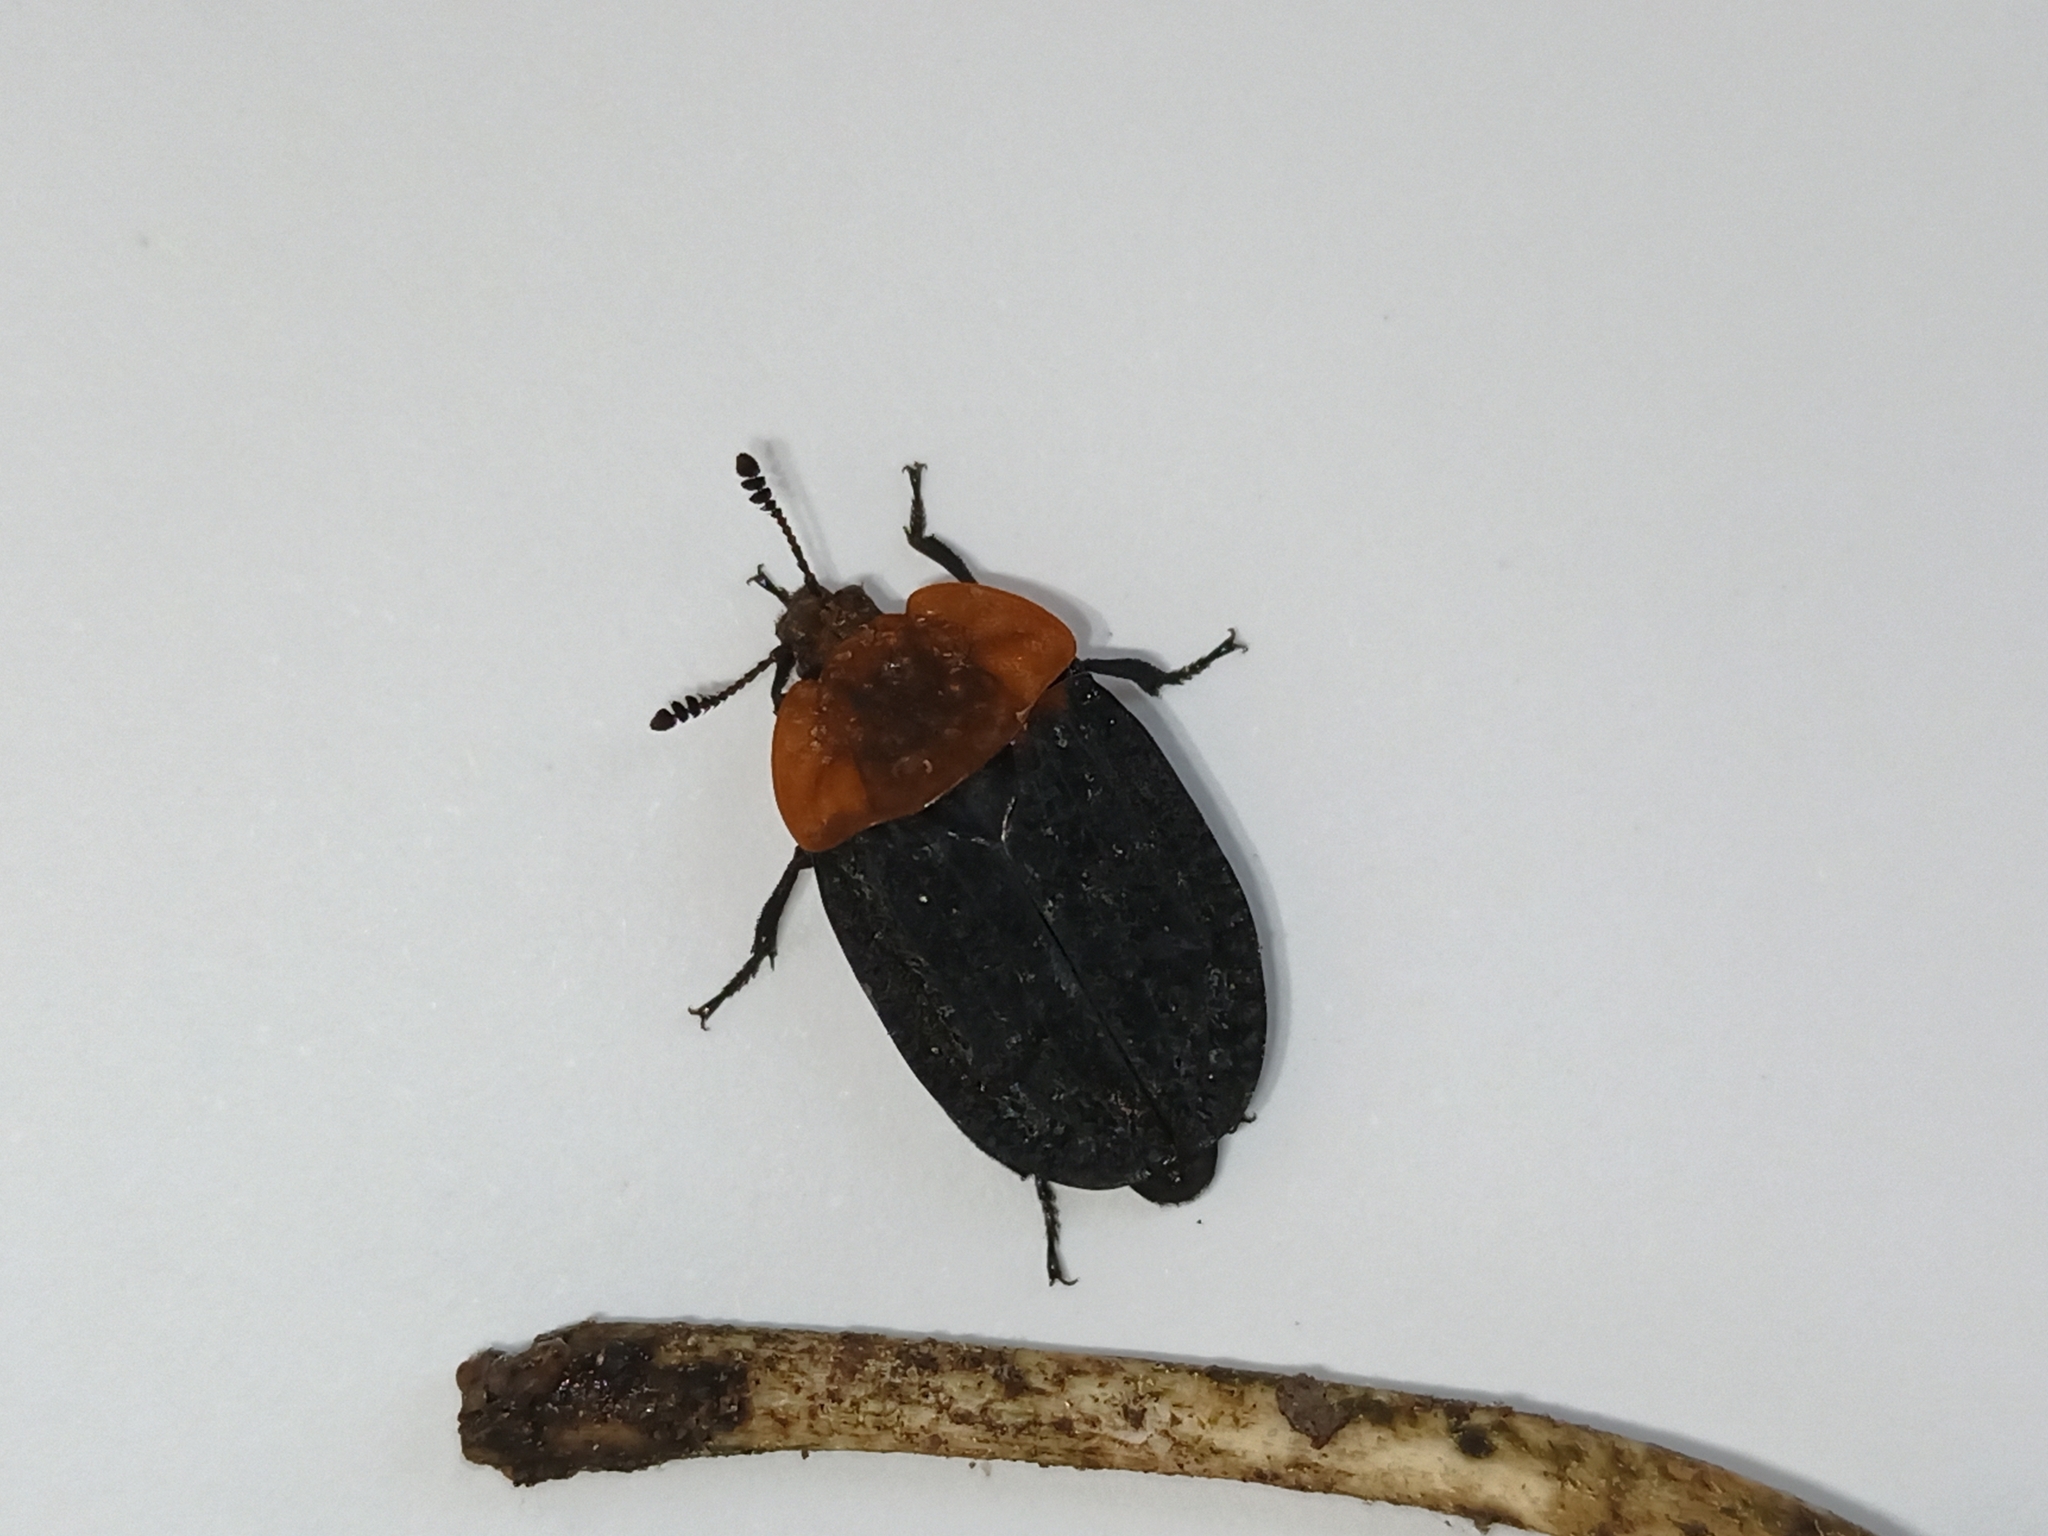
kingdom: Animalia
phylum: Arthropoda
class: Insecta
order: Coleoptera
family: Staphylinidae
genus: Oiceoptoma
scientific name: Oiceoptoma thoracicum
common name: Red-breasted carrion beetle
